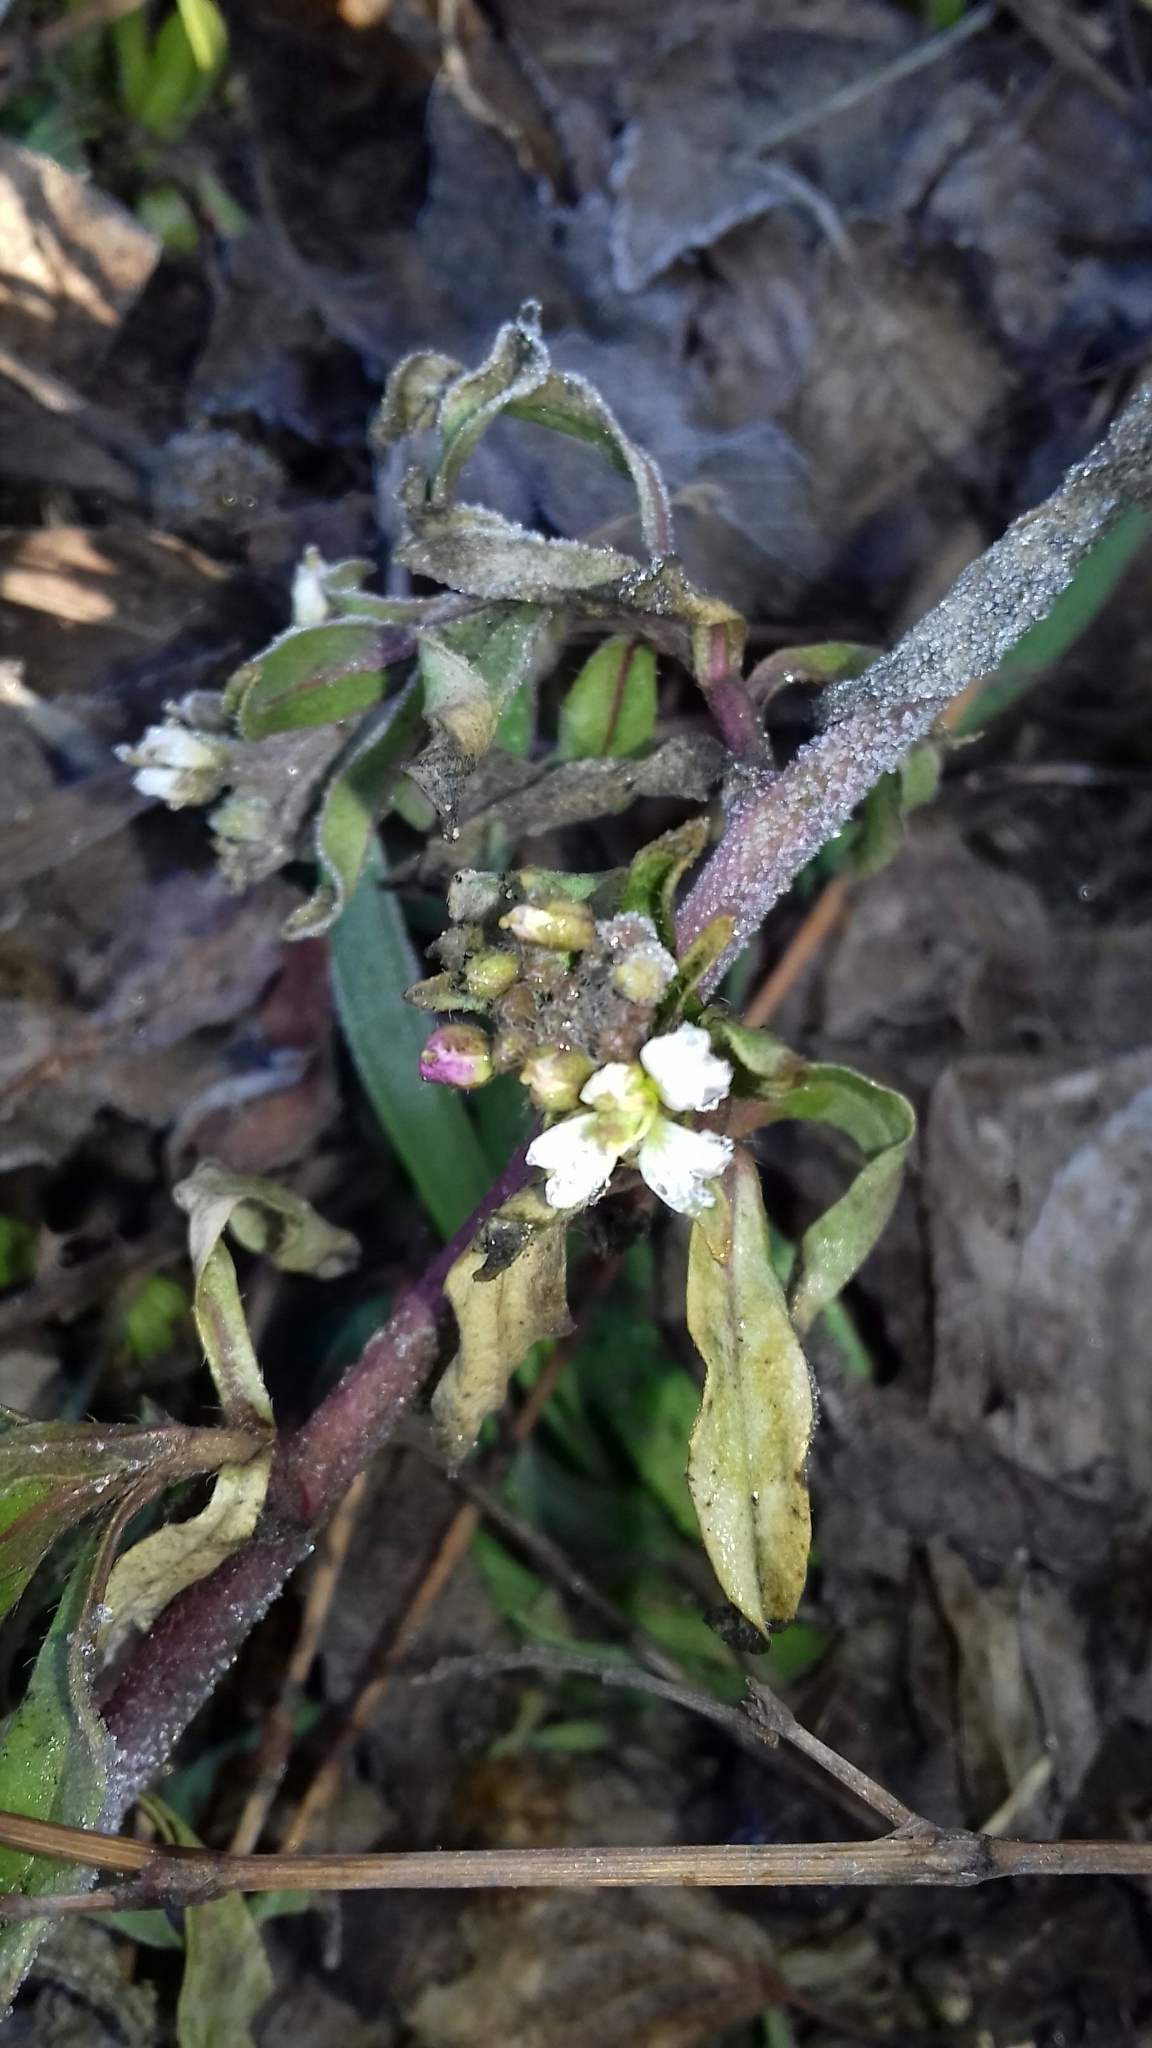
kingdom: Plantae
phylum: Tracheophyta
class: Magnoliopsida
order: Brassicales
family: Brassicaceae
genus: Berteroa
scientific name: Berteroa incana
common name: Hoary alison
